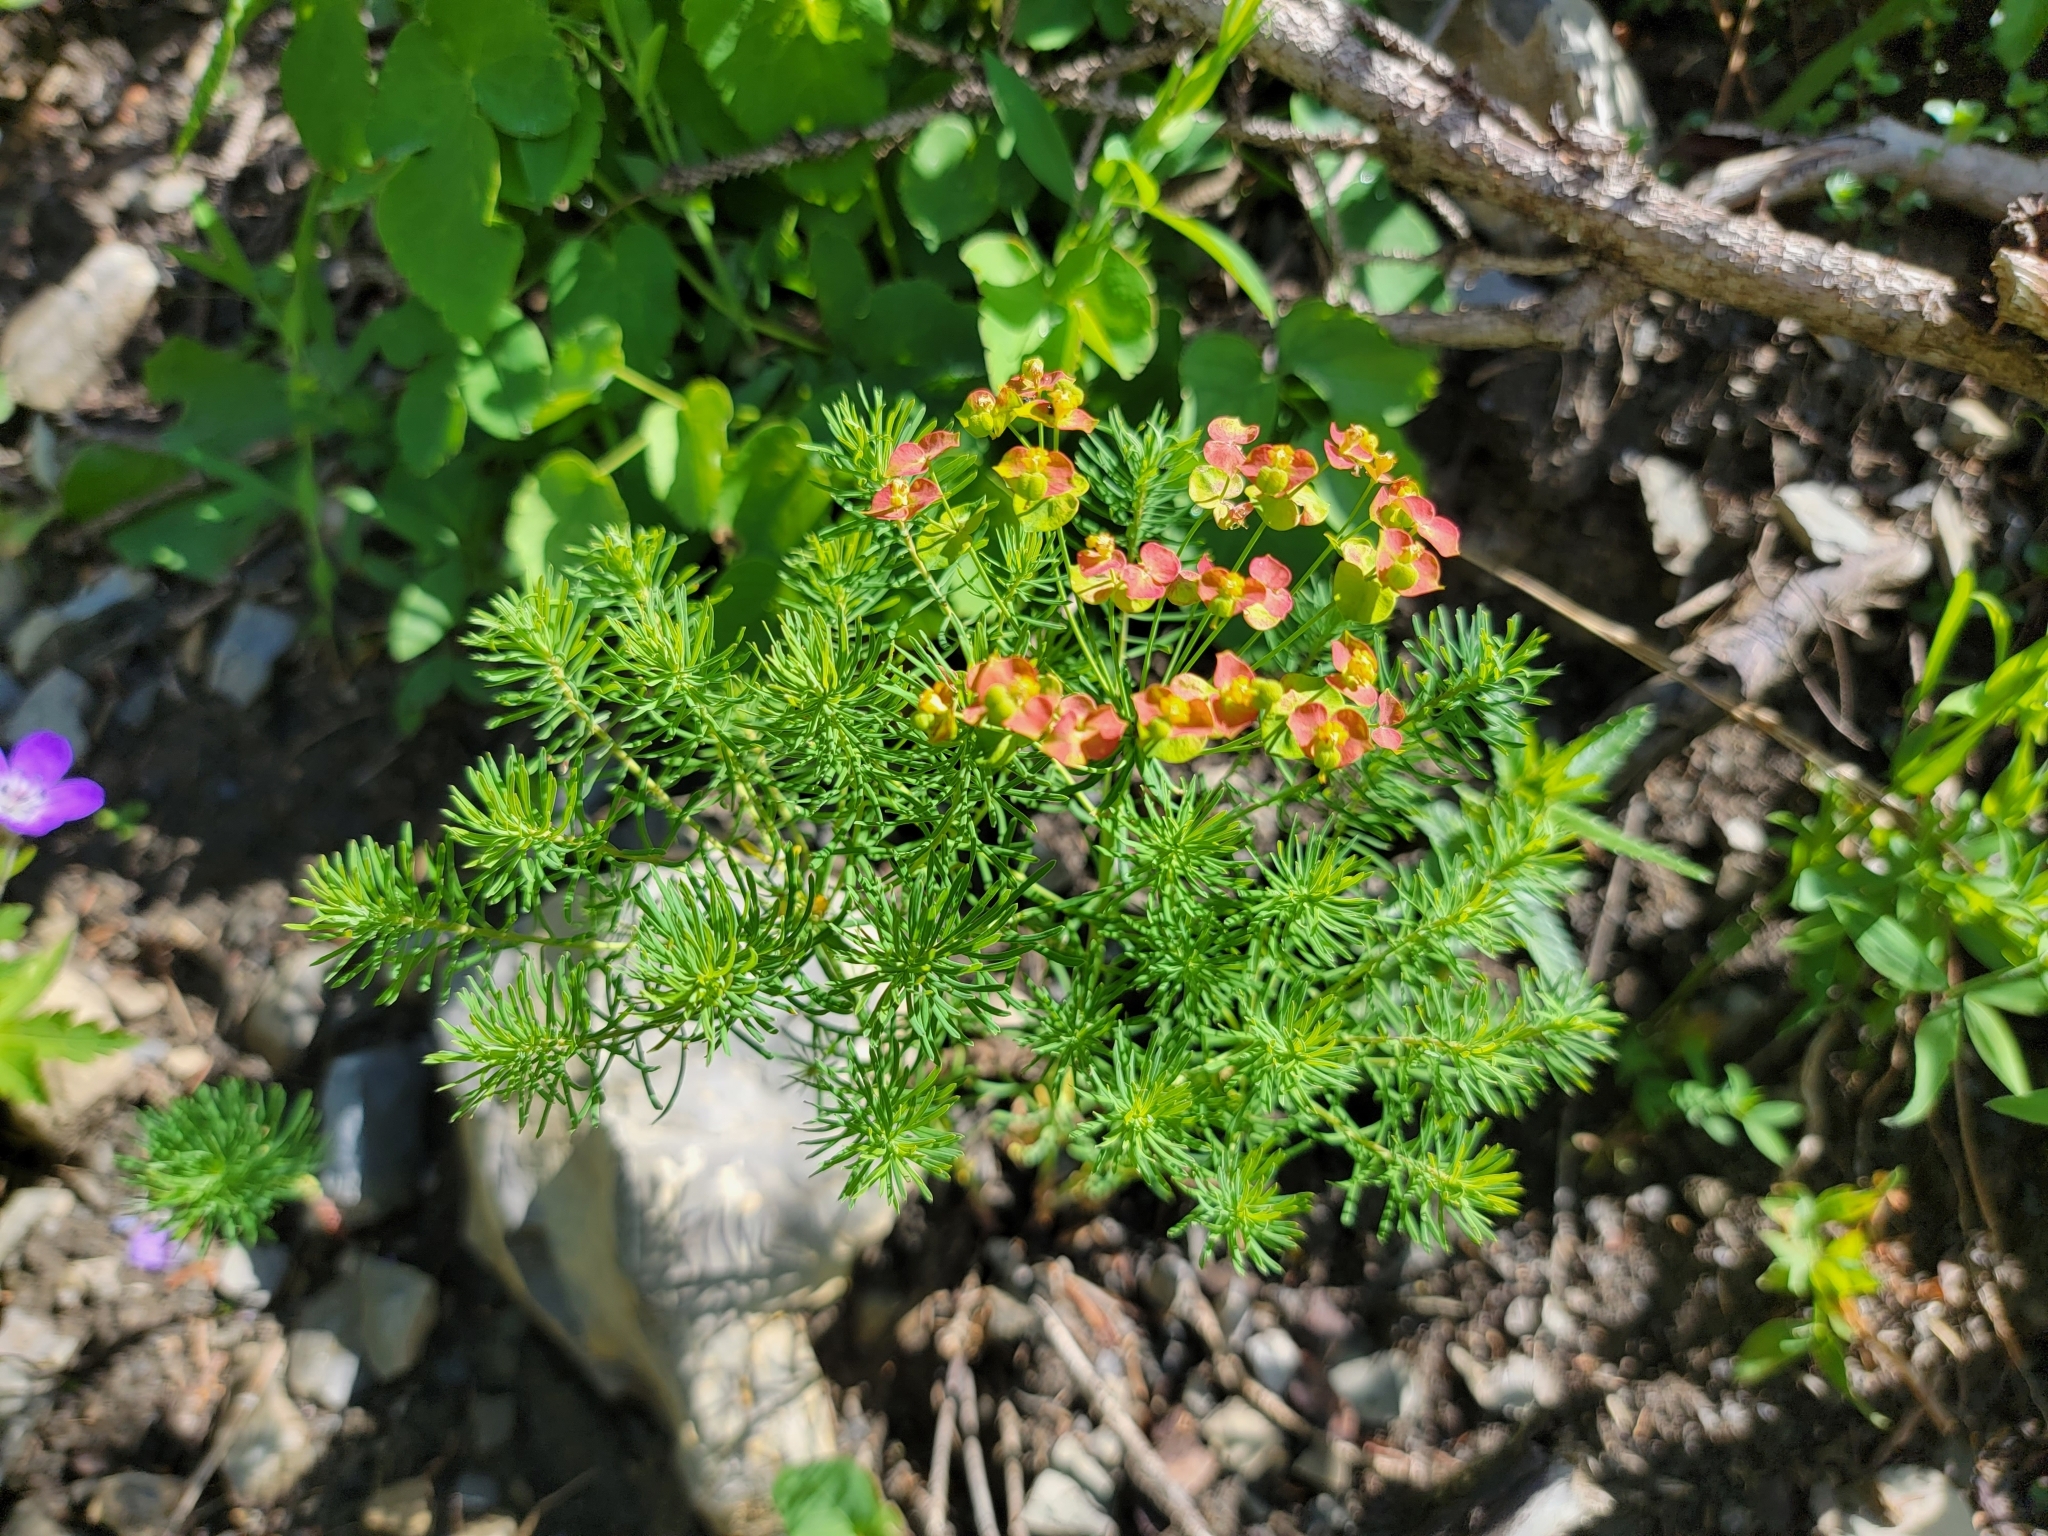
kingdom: Plantae
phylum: Tracheophyta
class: Magnoliopsida
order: Malpighiales
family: Euphorbiaceae
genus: Euphorbia
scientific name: Euphorbia cyparissias
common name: Cypress spurge
